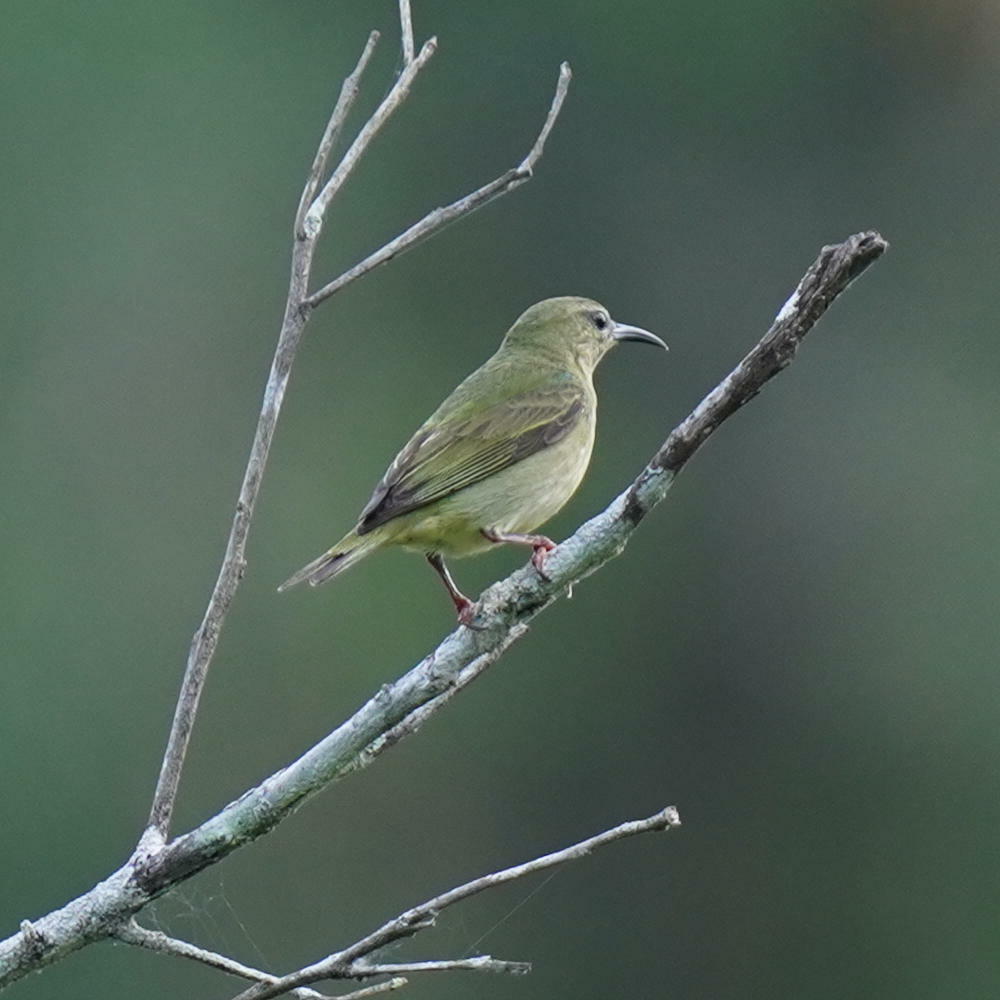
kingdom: Animalia
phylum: Chordata
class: Aves
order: Passeriformes
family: Thraupidae
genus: Cyanerpes
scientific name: Cyanerpes cyaneus
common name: Red-legged honeycreeper
